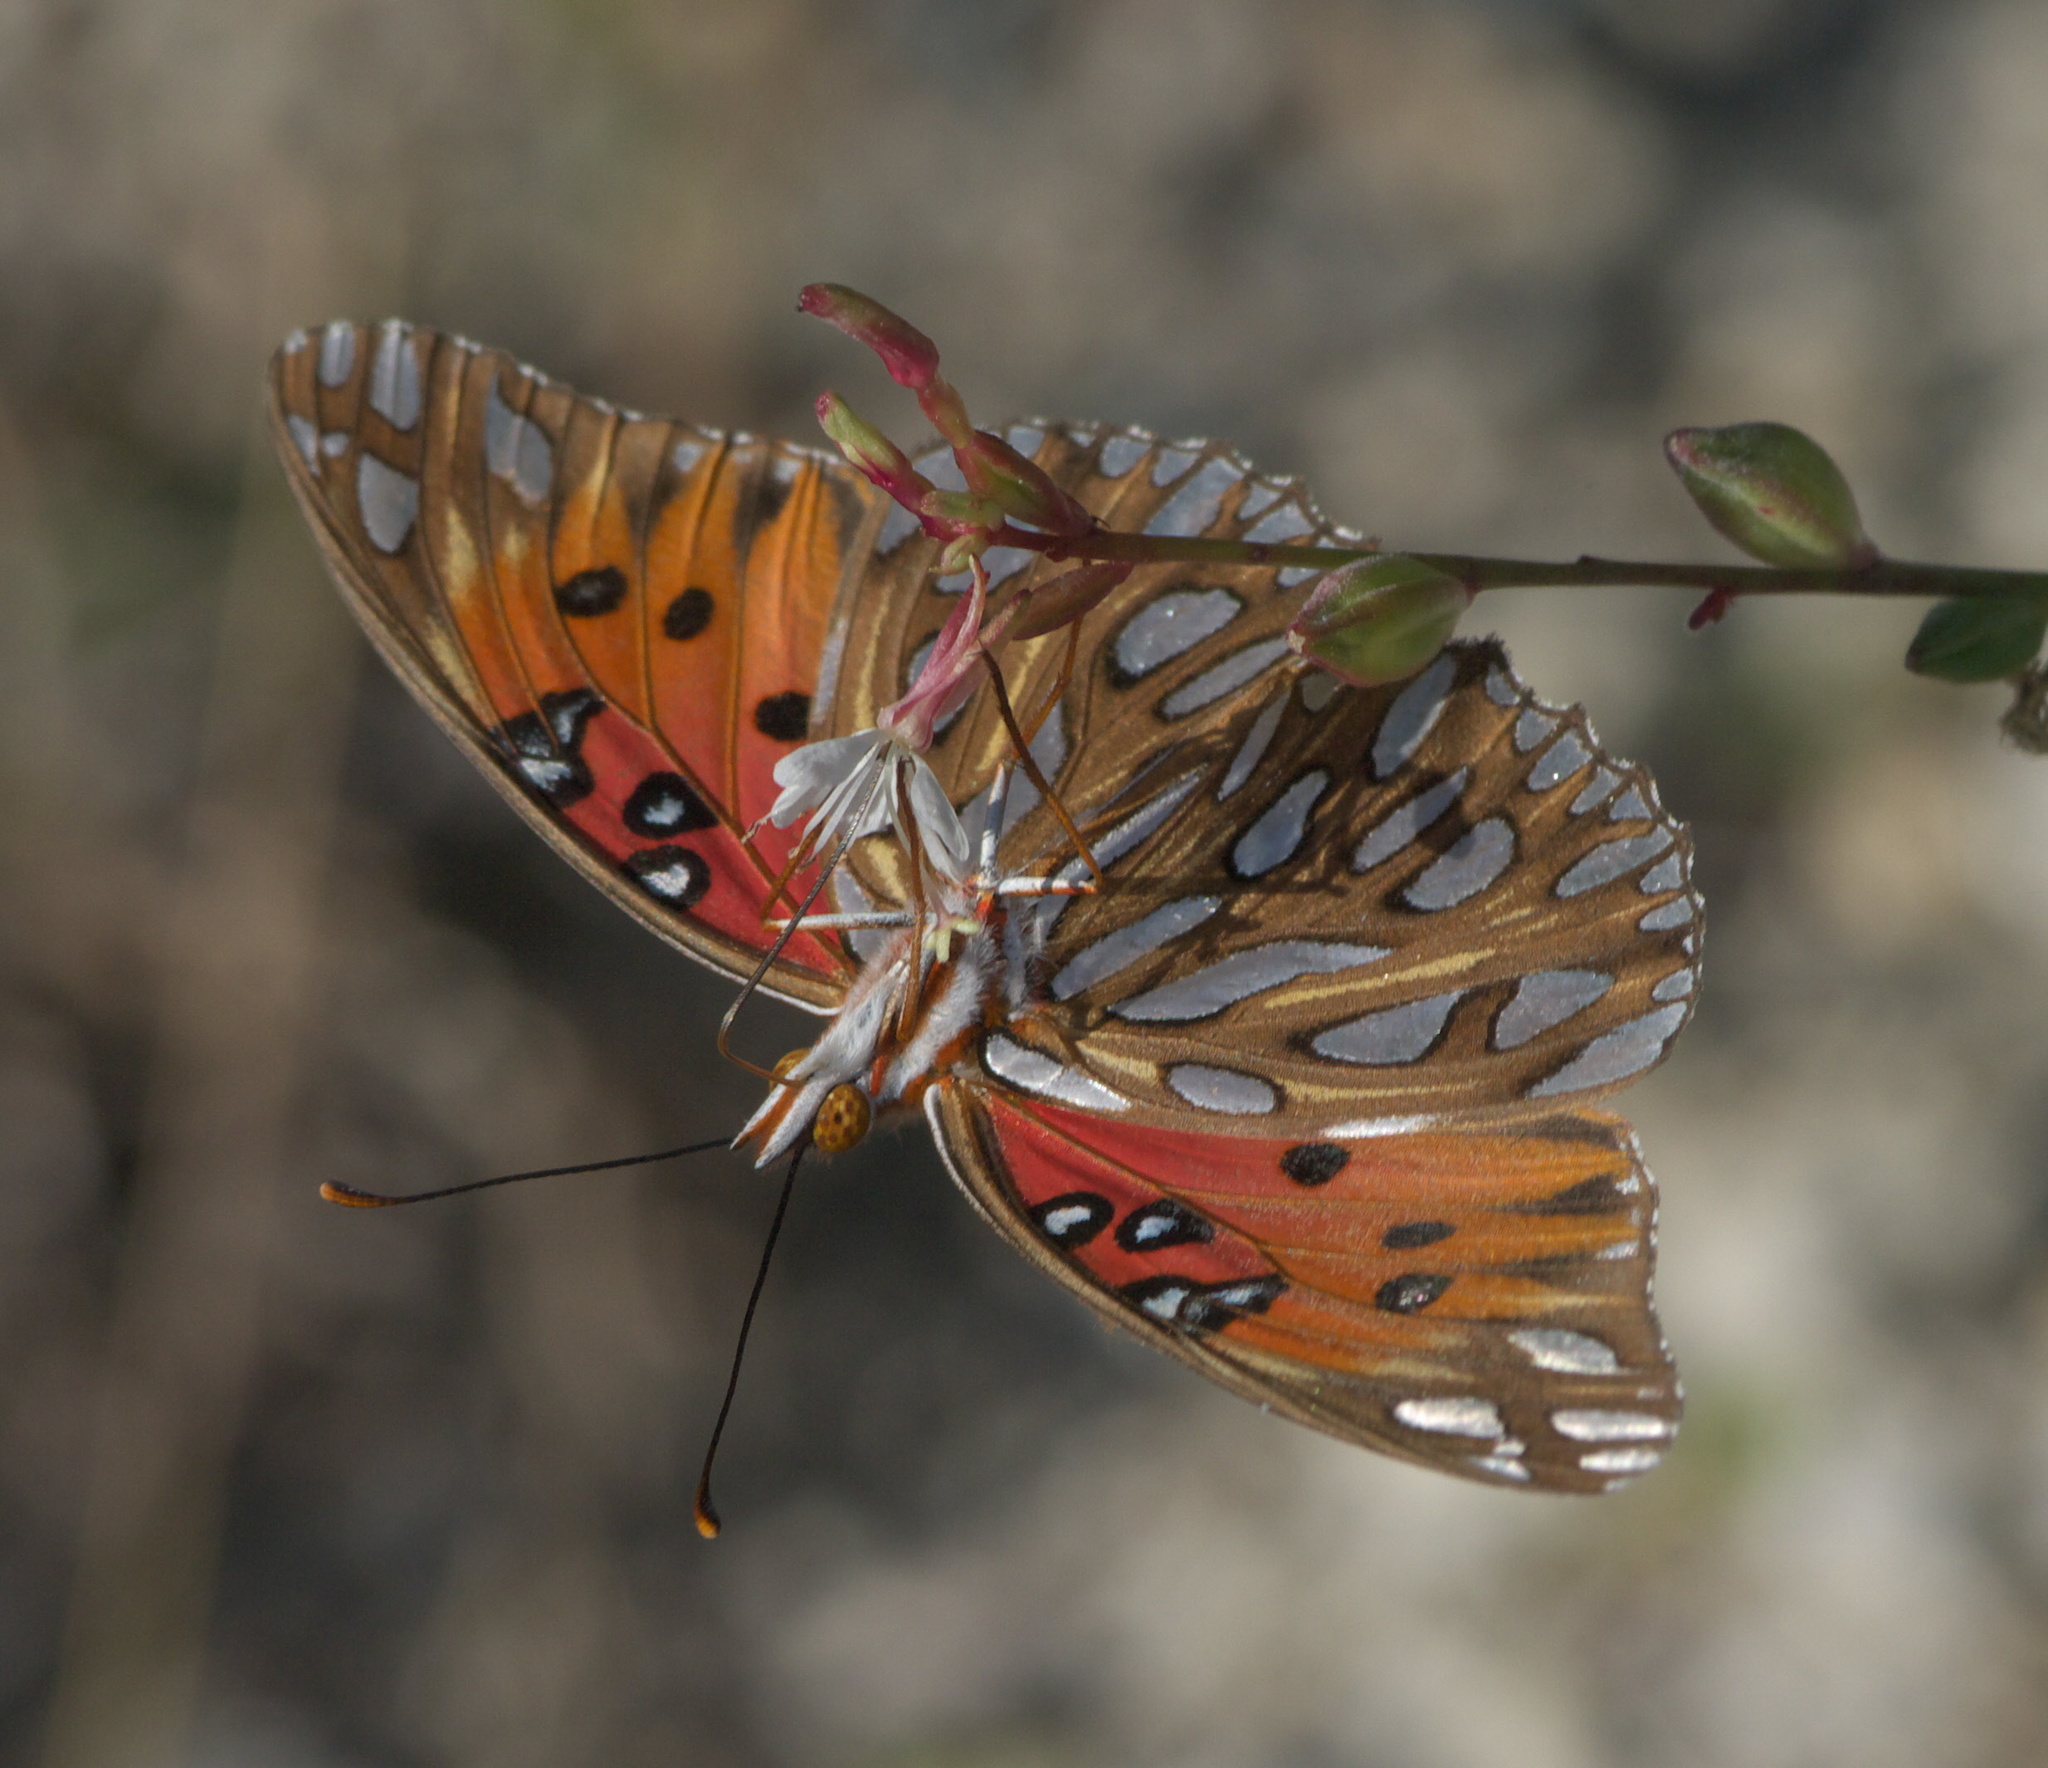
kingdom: Animalia
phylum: Arthropoda
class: Insecta
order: Lepidoptera
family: Nymphalidae
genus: Dione
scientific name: Dione vanillae
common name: Gulf fritillary
